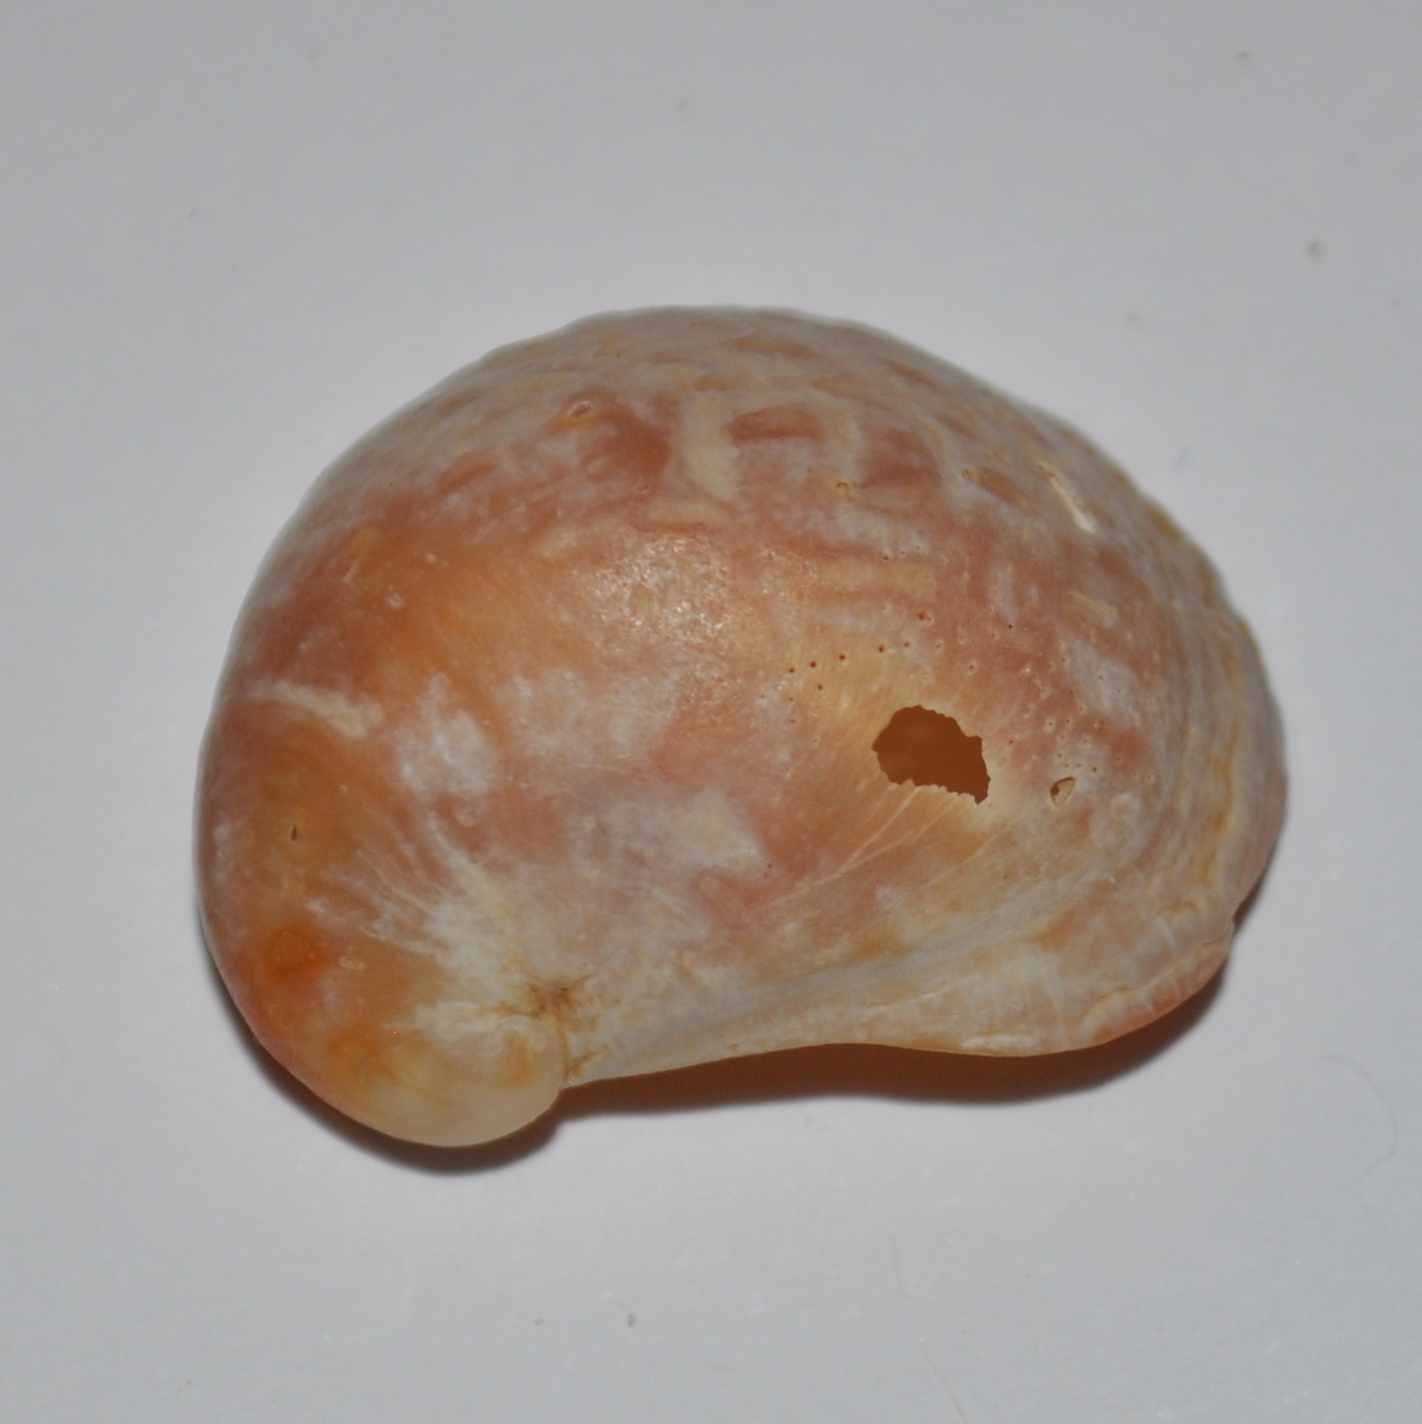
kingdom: Animalia
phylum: Mollusca
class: Gastropoda
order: Littorinimorpha
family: Calyptraeidae
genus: Bostrycapulus
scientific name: Bostrycapulus odites
